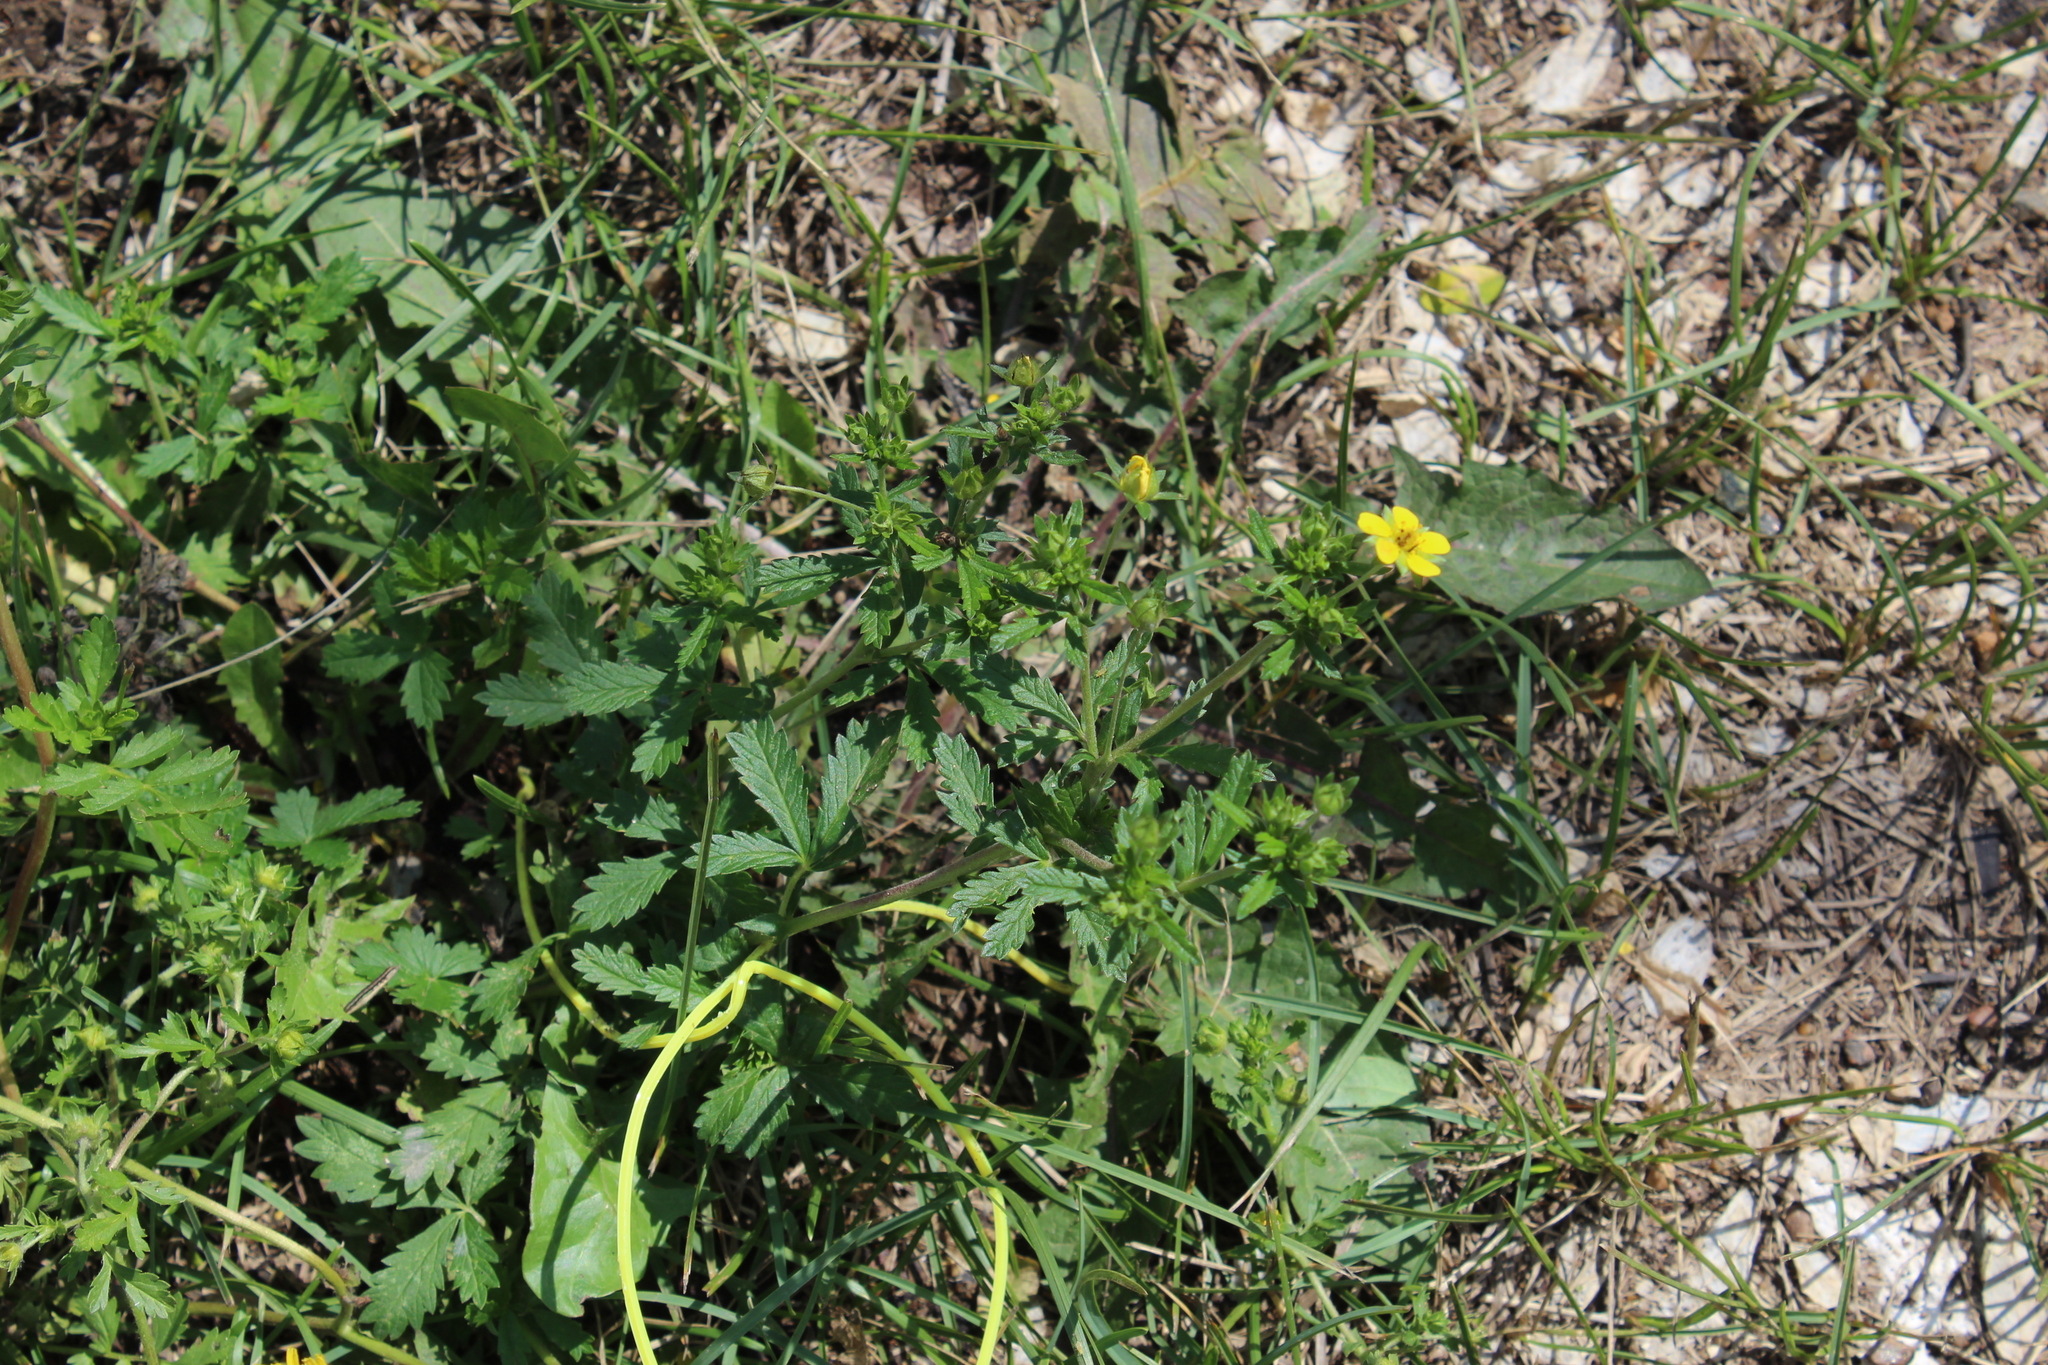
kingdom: Plantae
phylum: Tracheophyta
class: Magnoliopsida
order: Rosales
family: Rosaceae
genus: Potentilla
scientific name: Potentilla intermedia
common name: Downy cinquefoil
